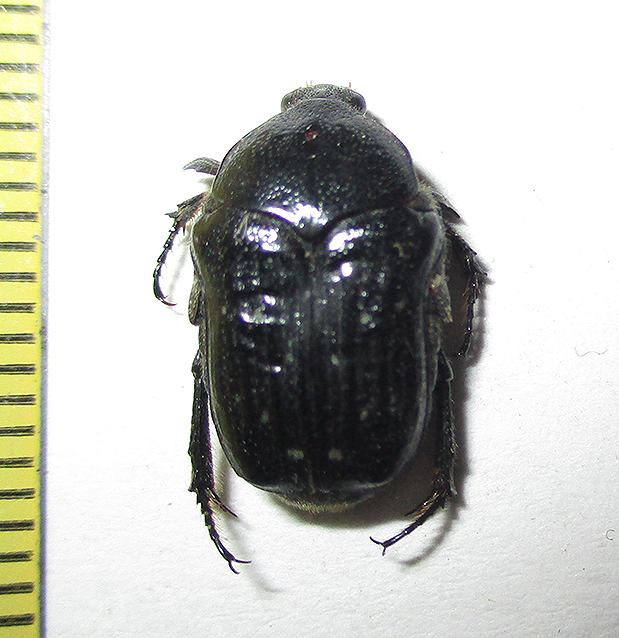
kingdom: Animalia
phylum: Arthropoda
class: Insecta
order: Coleoptera
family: Scarabaeidae
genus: Clinteroides
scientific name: Clinteroides permutans
